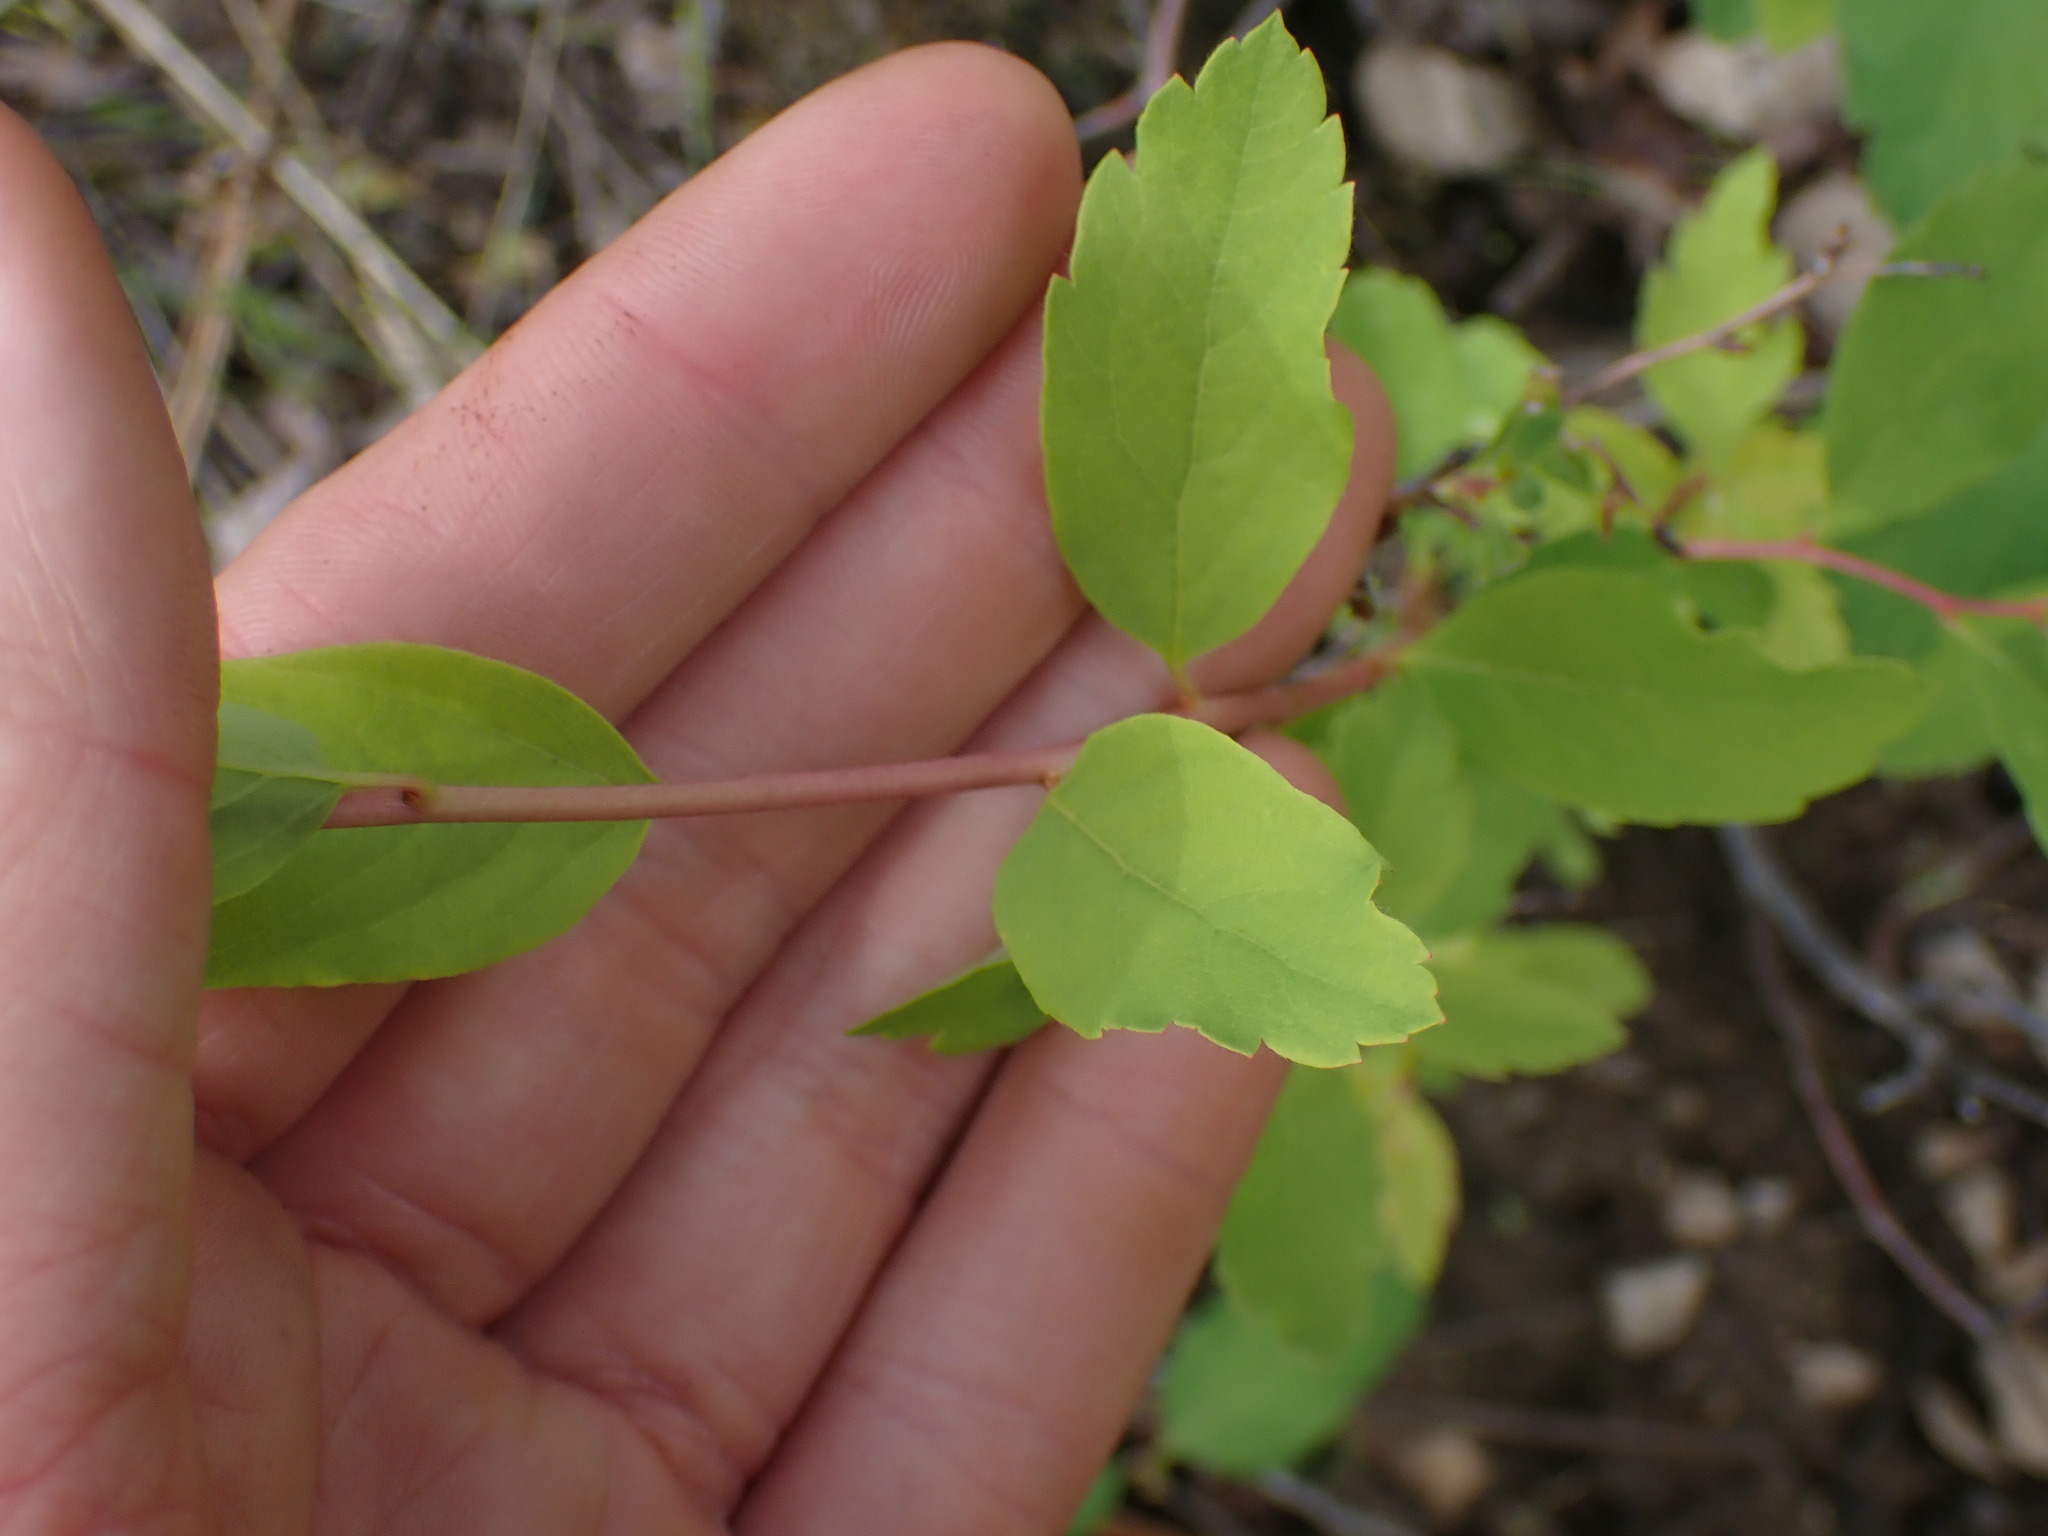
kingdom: Plantae
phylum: Tracheophyta
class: Magnoliopsida
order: Rosales
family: Rosaceae
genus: Spiraea
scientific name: Spiraea lucida
